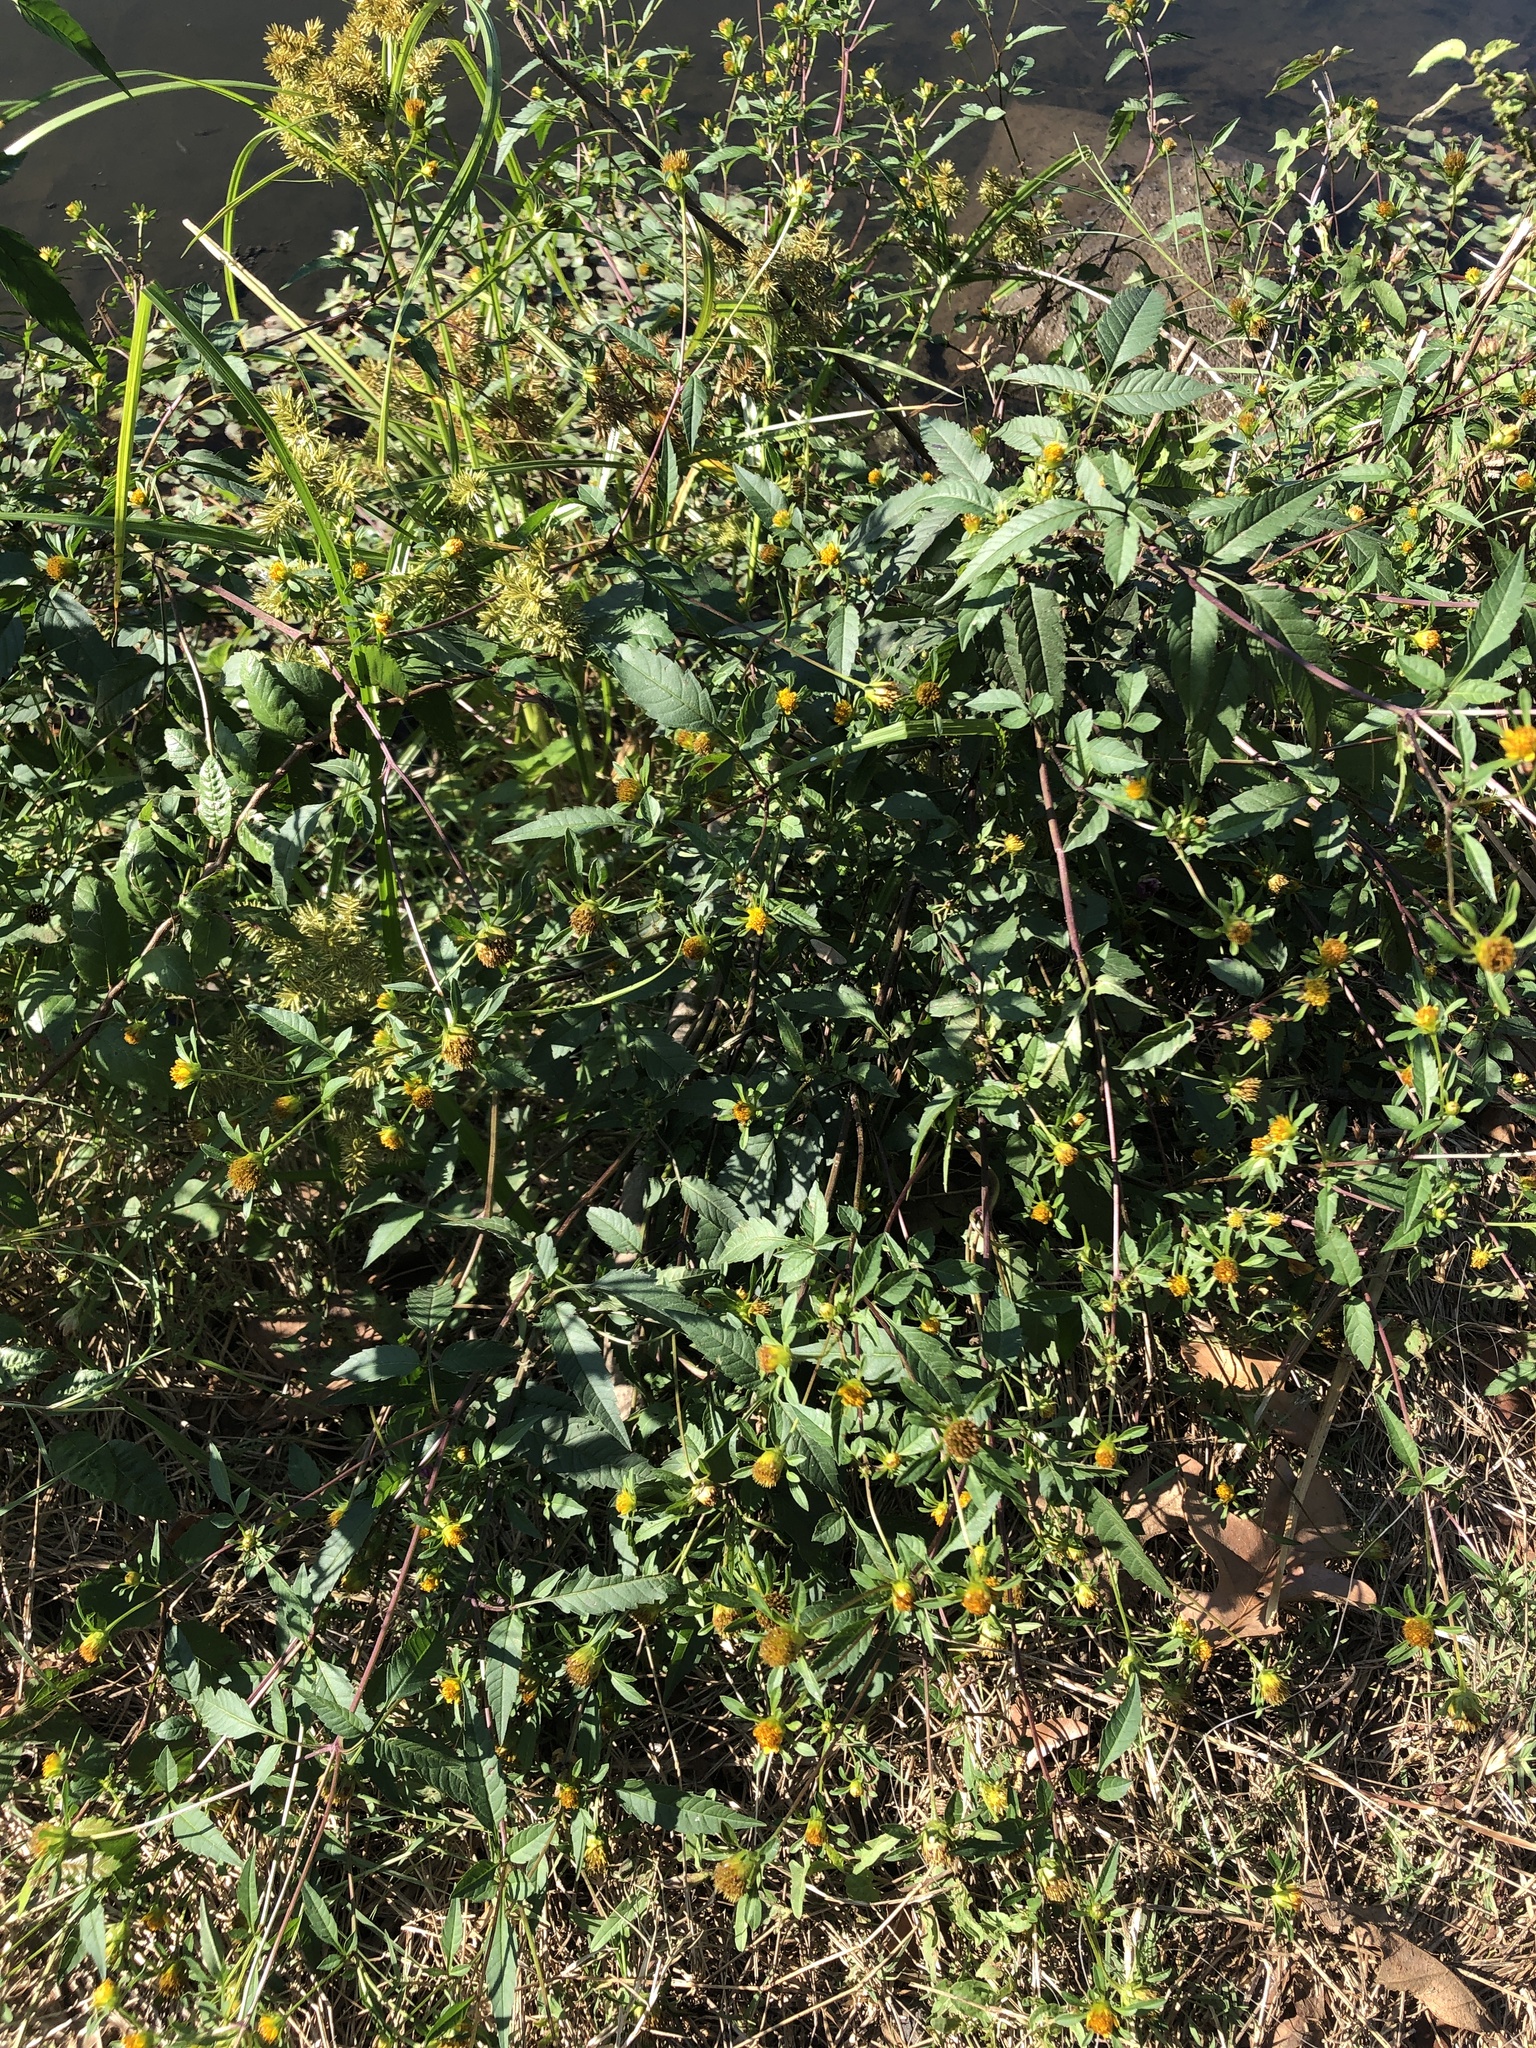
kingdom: Plantae
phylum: Tracheophyta
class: Magnoliopsida
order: Asterales
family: Asteraceae
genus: Bidens
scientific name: Bidens frondosa
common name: Beggarticks
